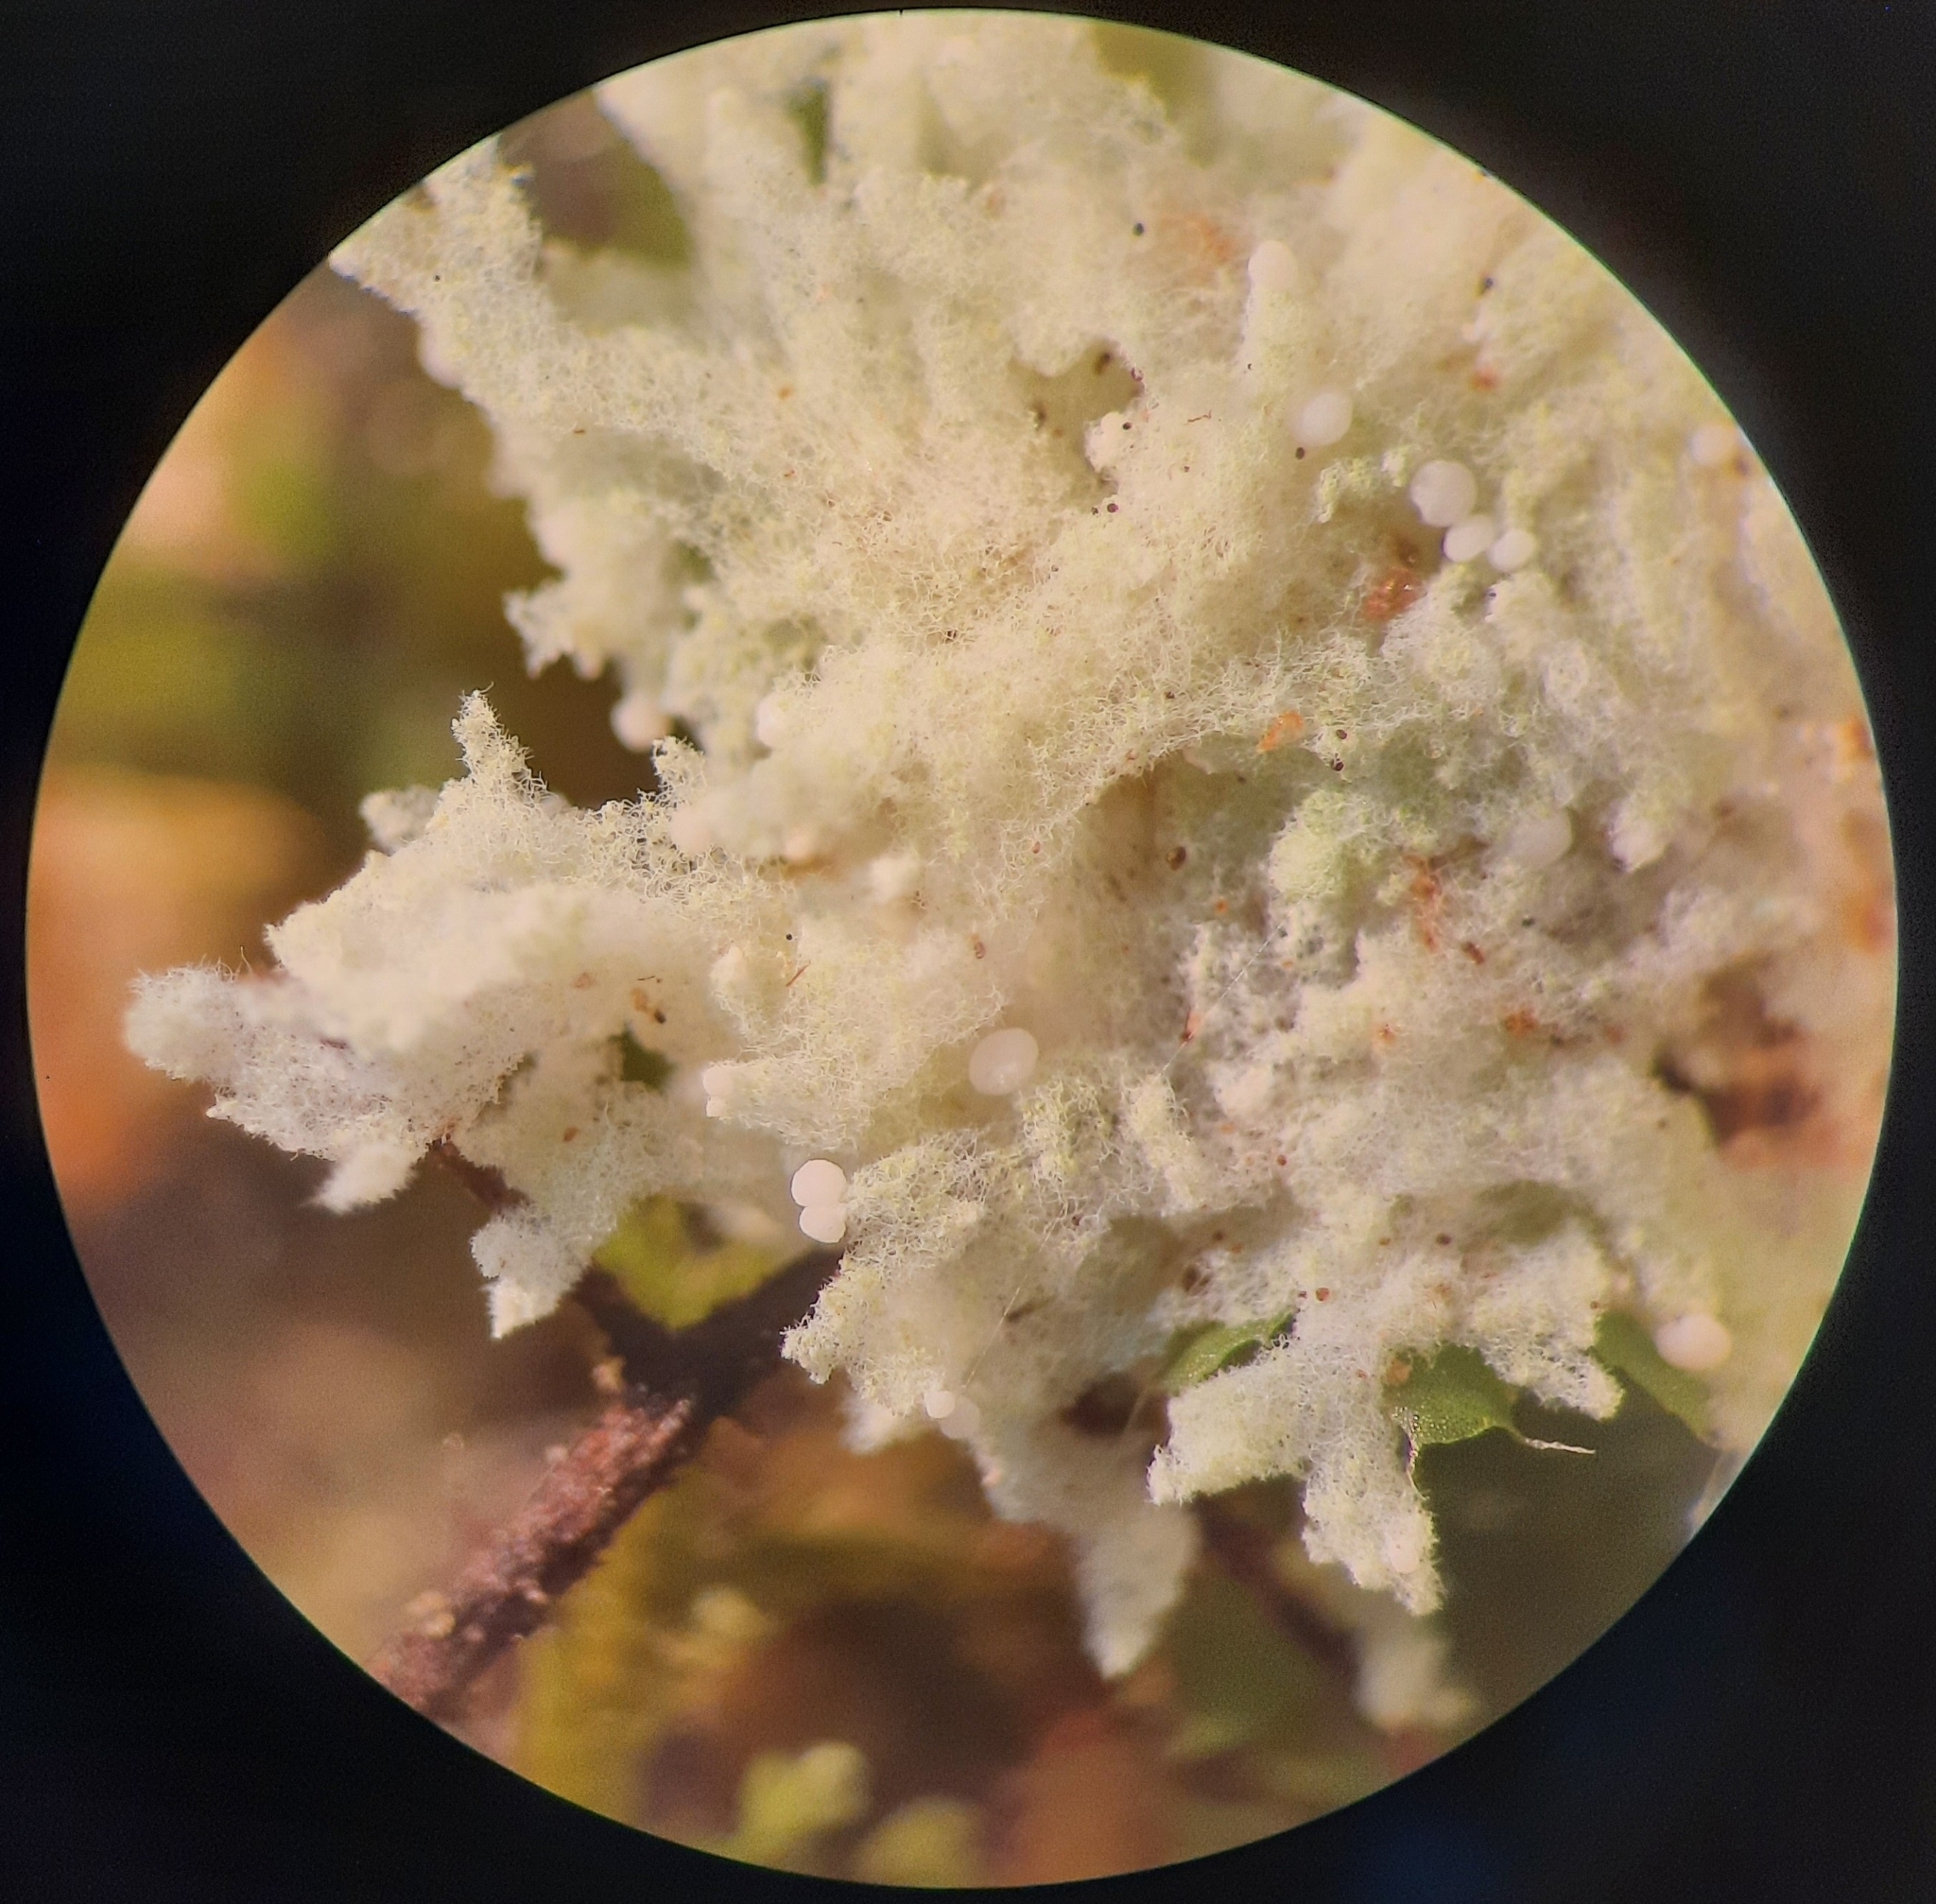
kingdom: Fungi
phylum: Ascomycota
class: Lecanoromycetes
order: Lecanorales
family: Byssolomataceae
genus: Roccellinastrum
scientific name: Roccellinastrum neglectum
